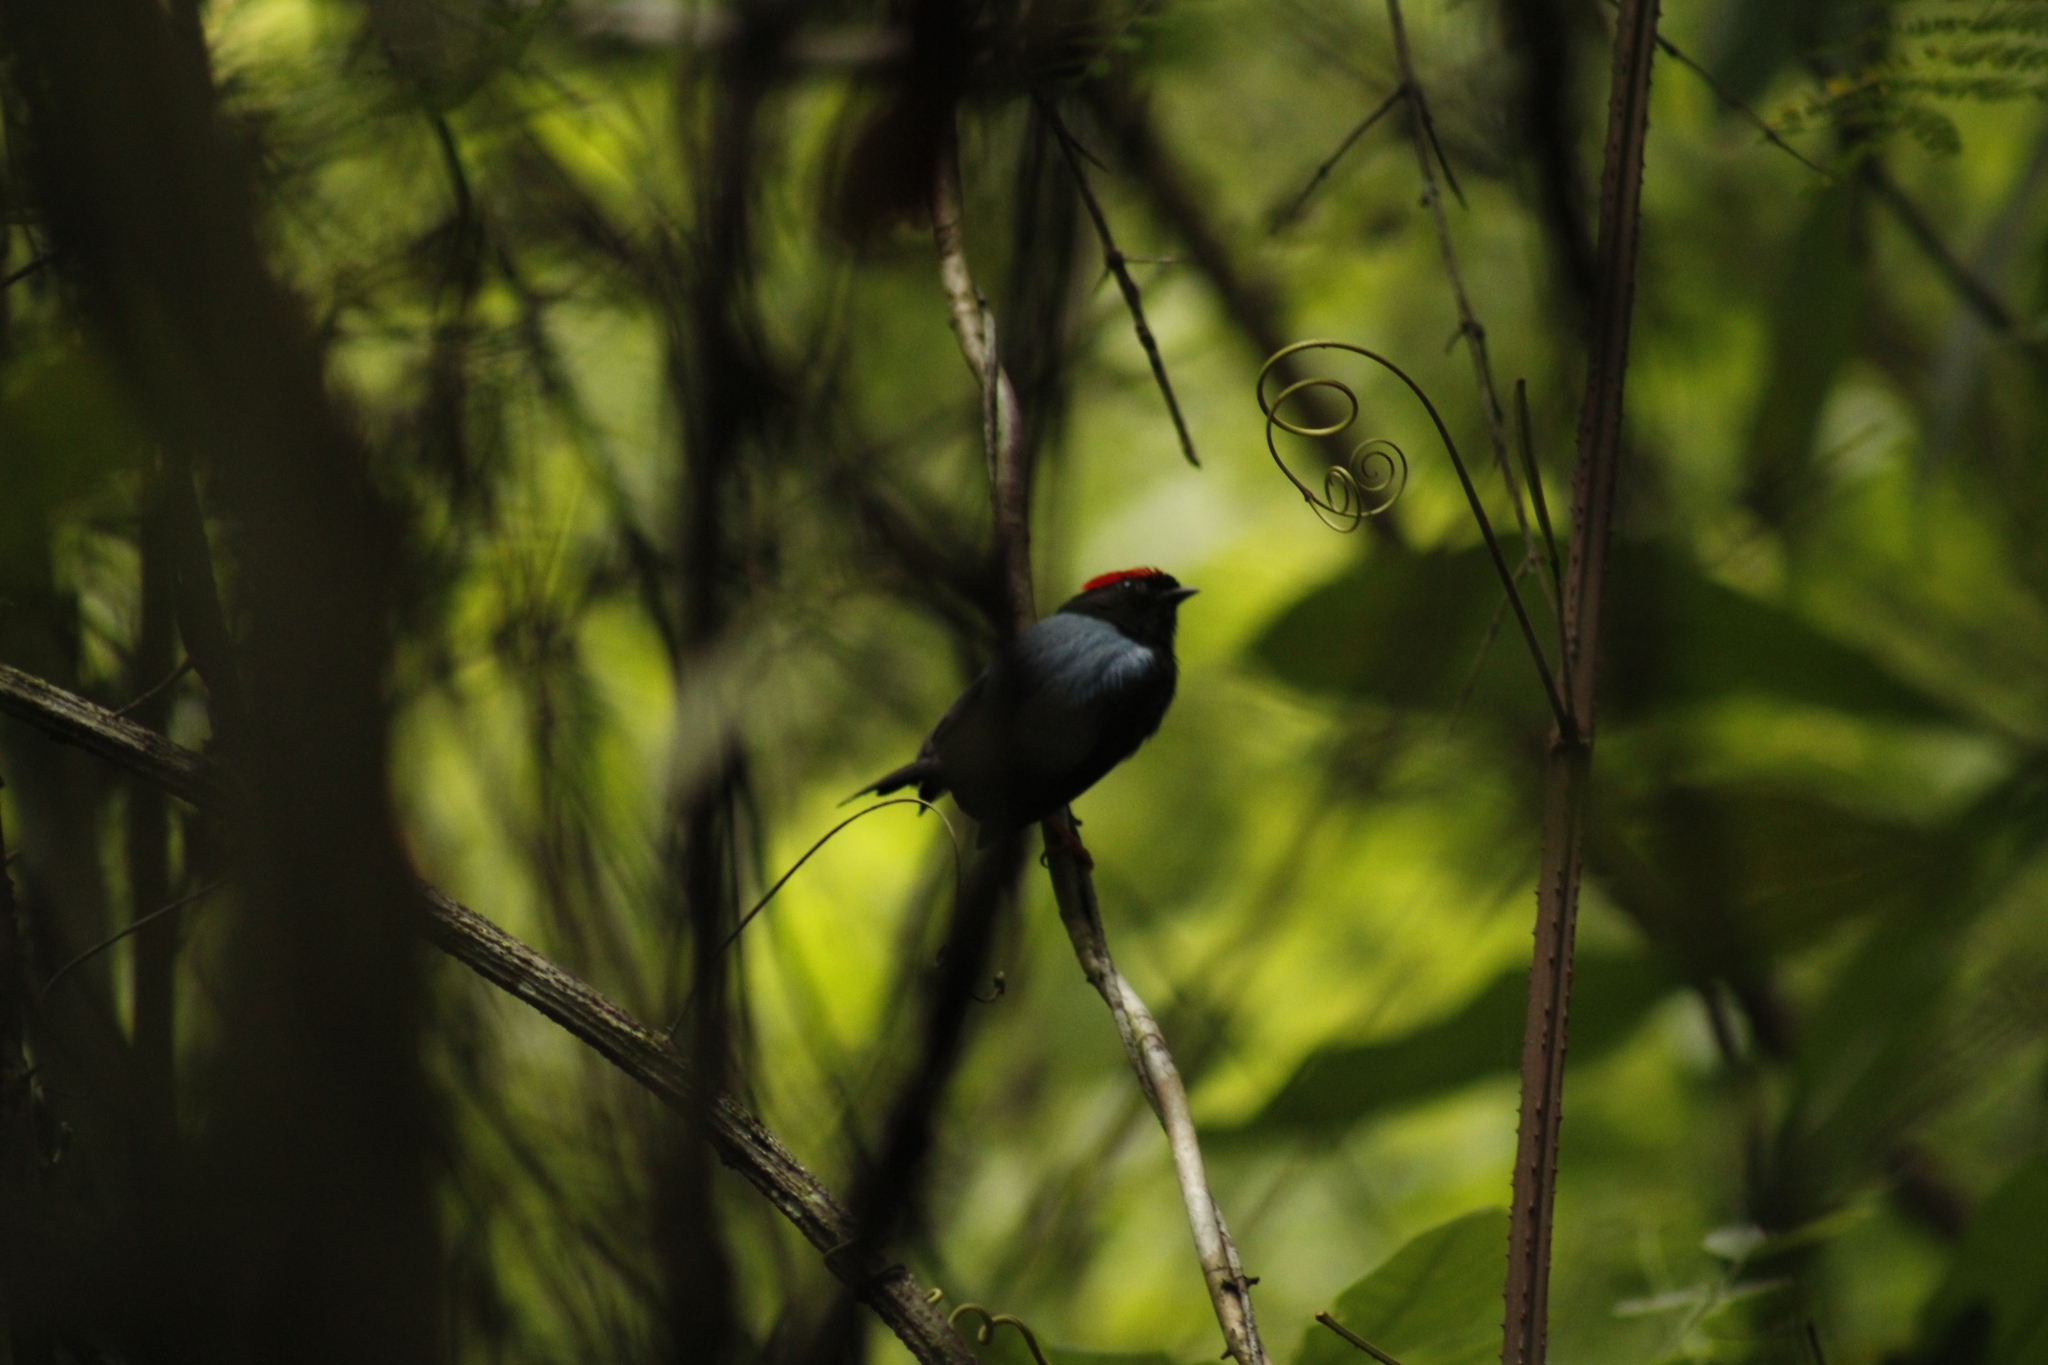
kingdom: Animalia
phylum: Chordata
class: Aves
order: Passeriformes
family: Pipridae
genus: Chiroxiphia
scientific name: Chiroxiphia lanceolata
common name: Lance-tailed manakin
